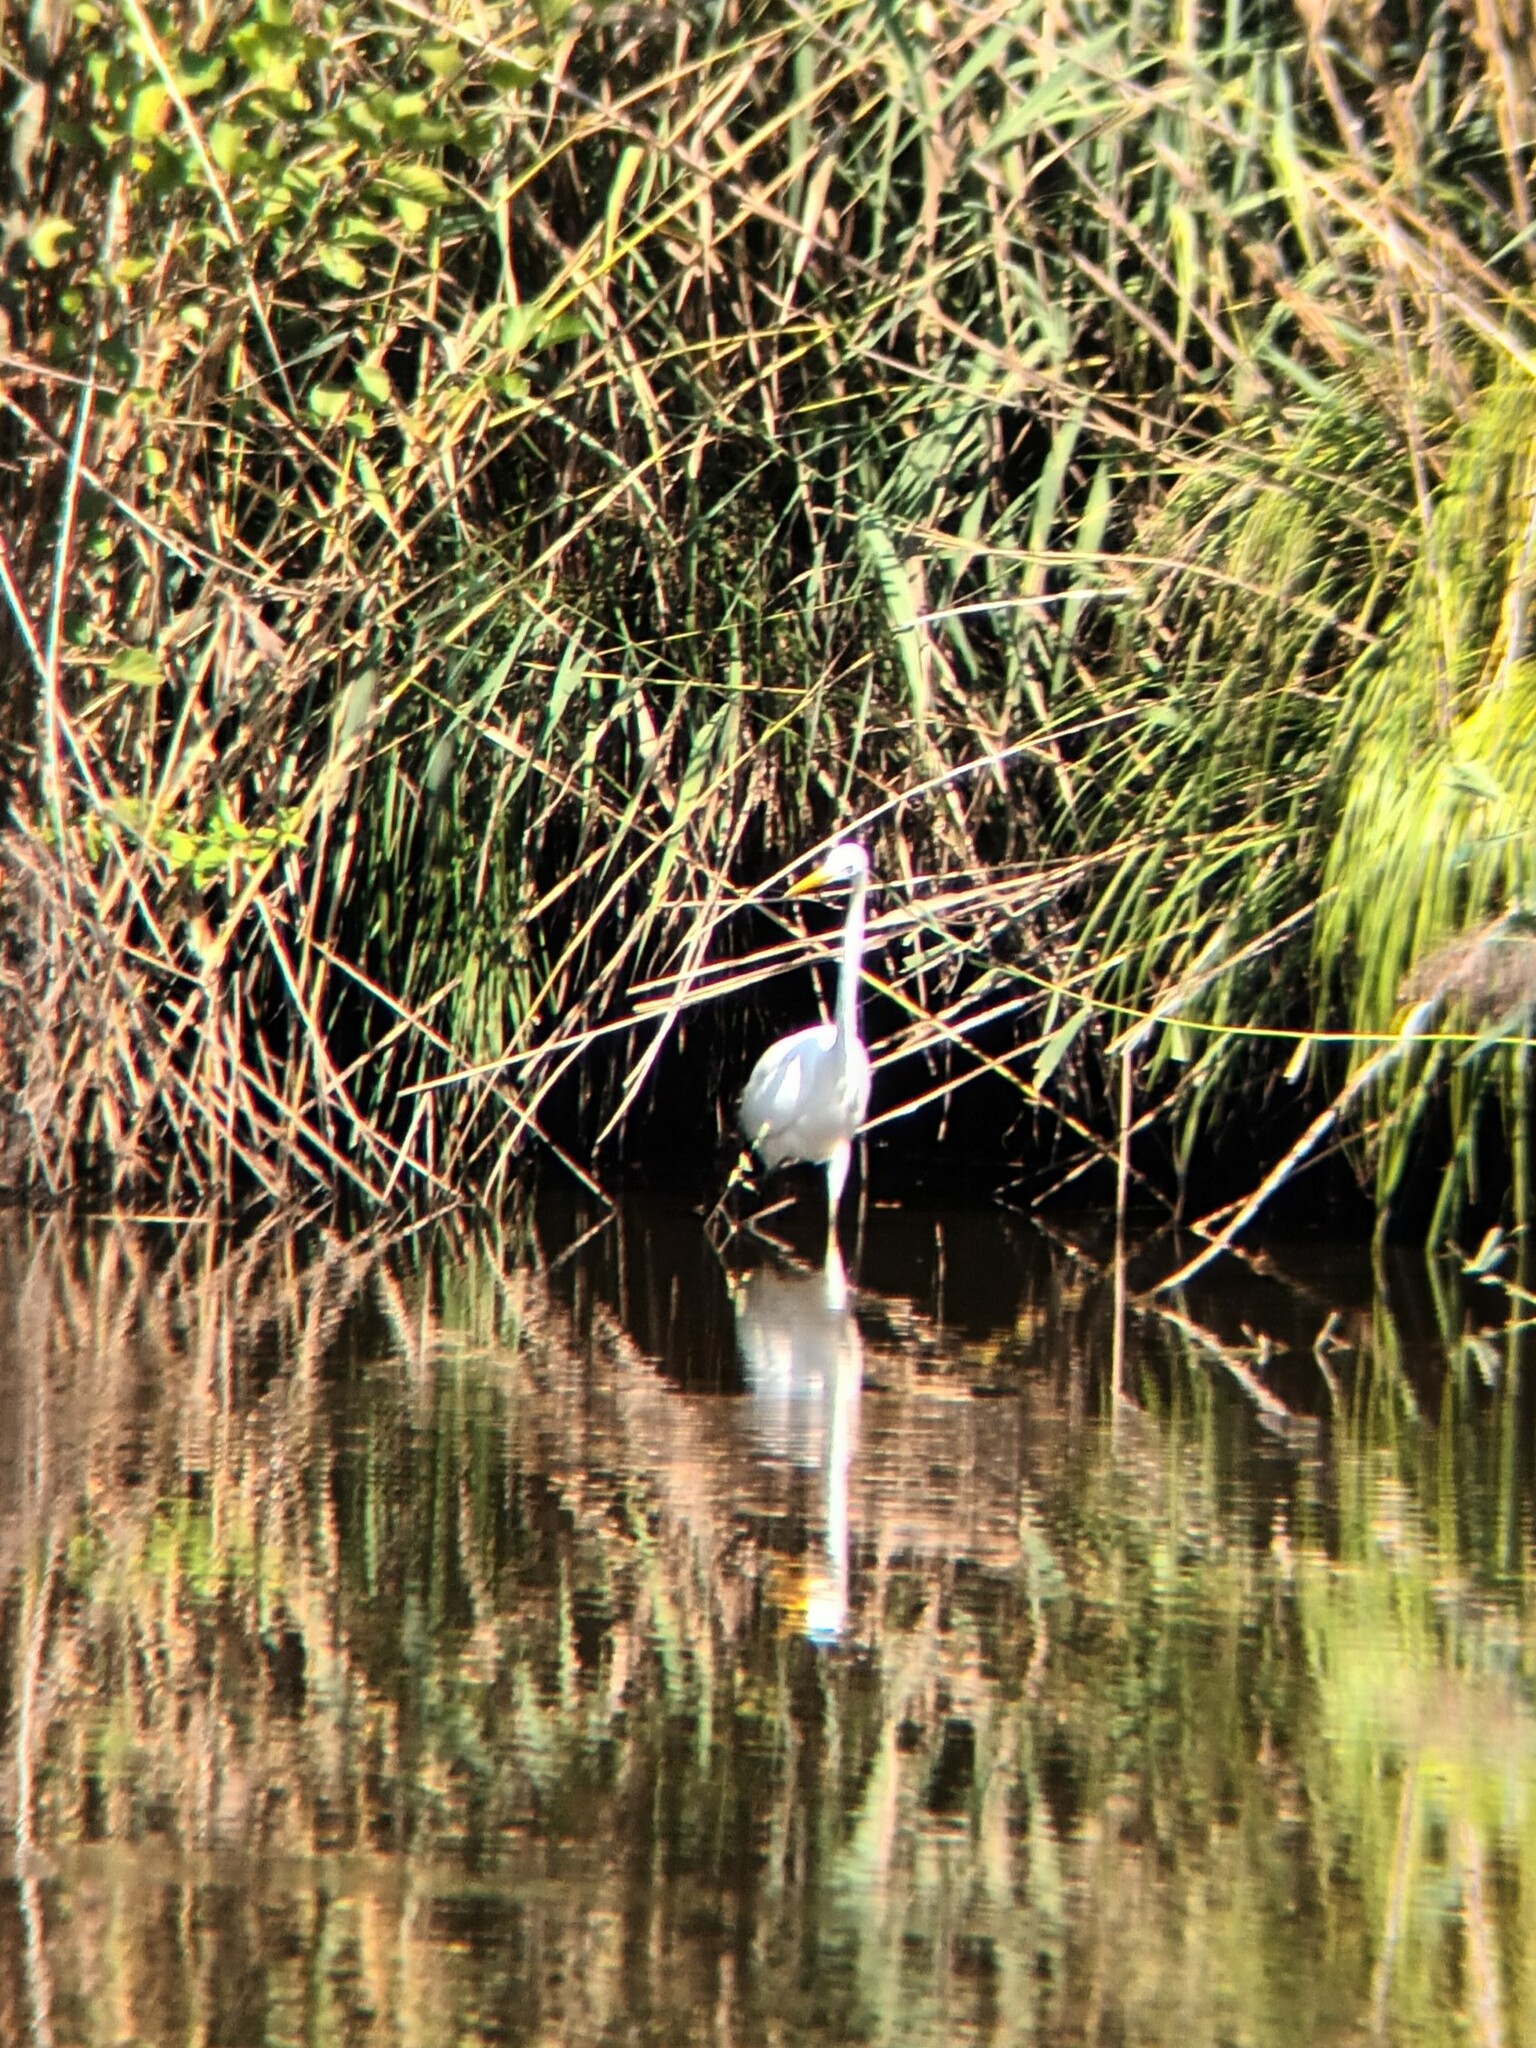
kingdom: Animalia
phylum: Chordata
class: Aves
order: Pelecaniformes
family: Ardeidae
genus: Ardea
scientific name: Ardea alba
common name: Great egret
